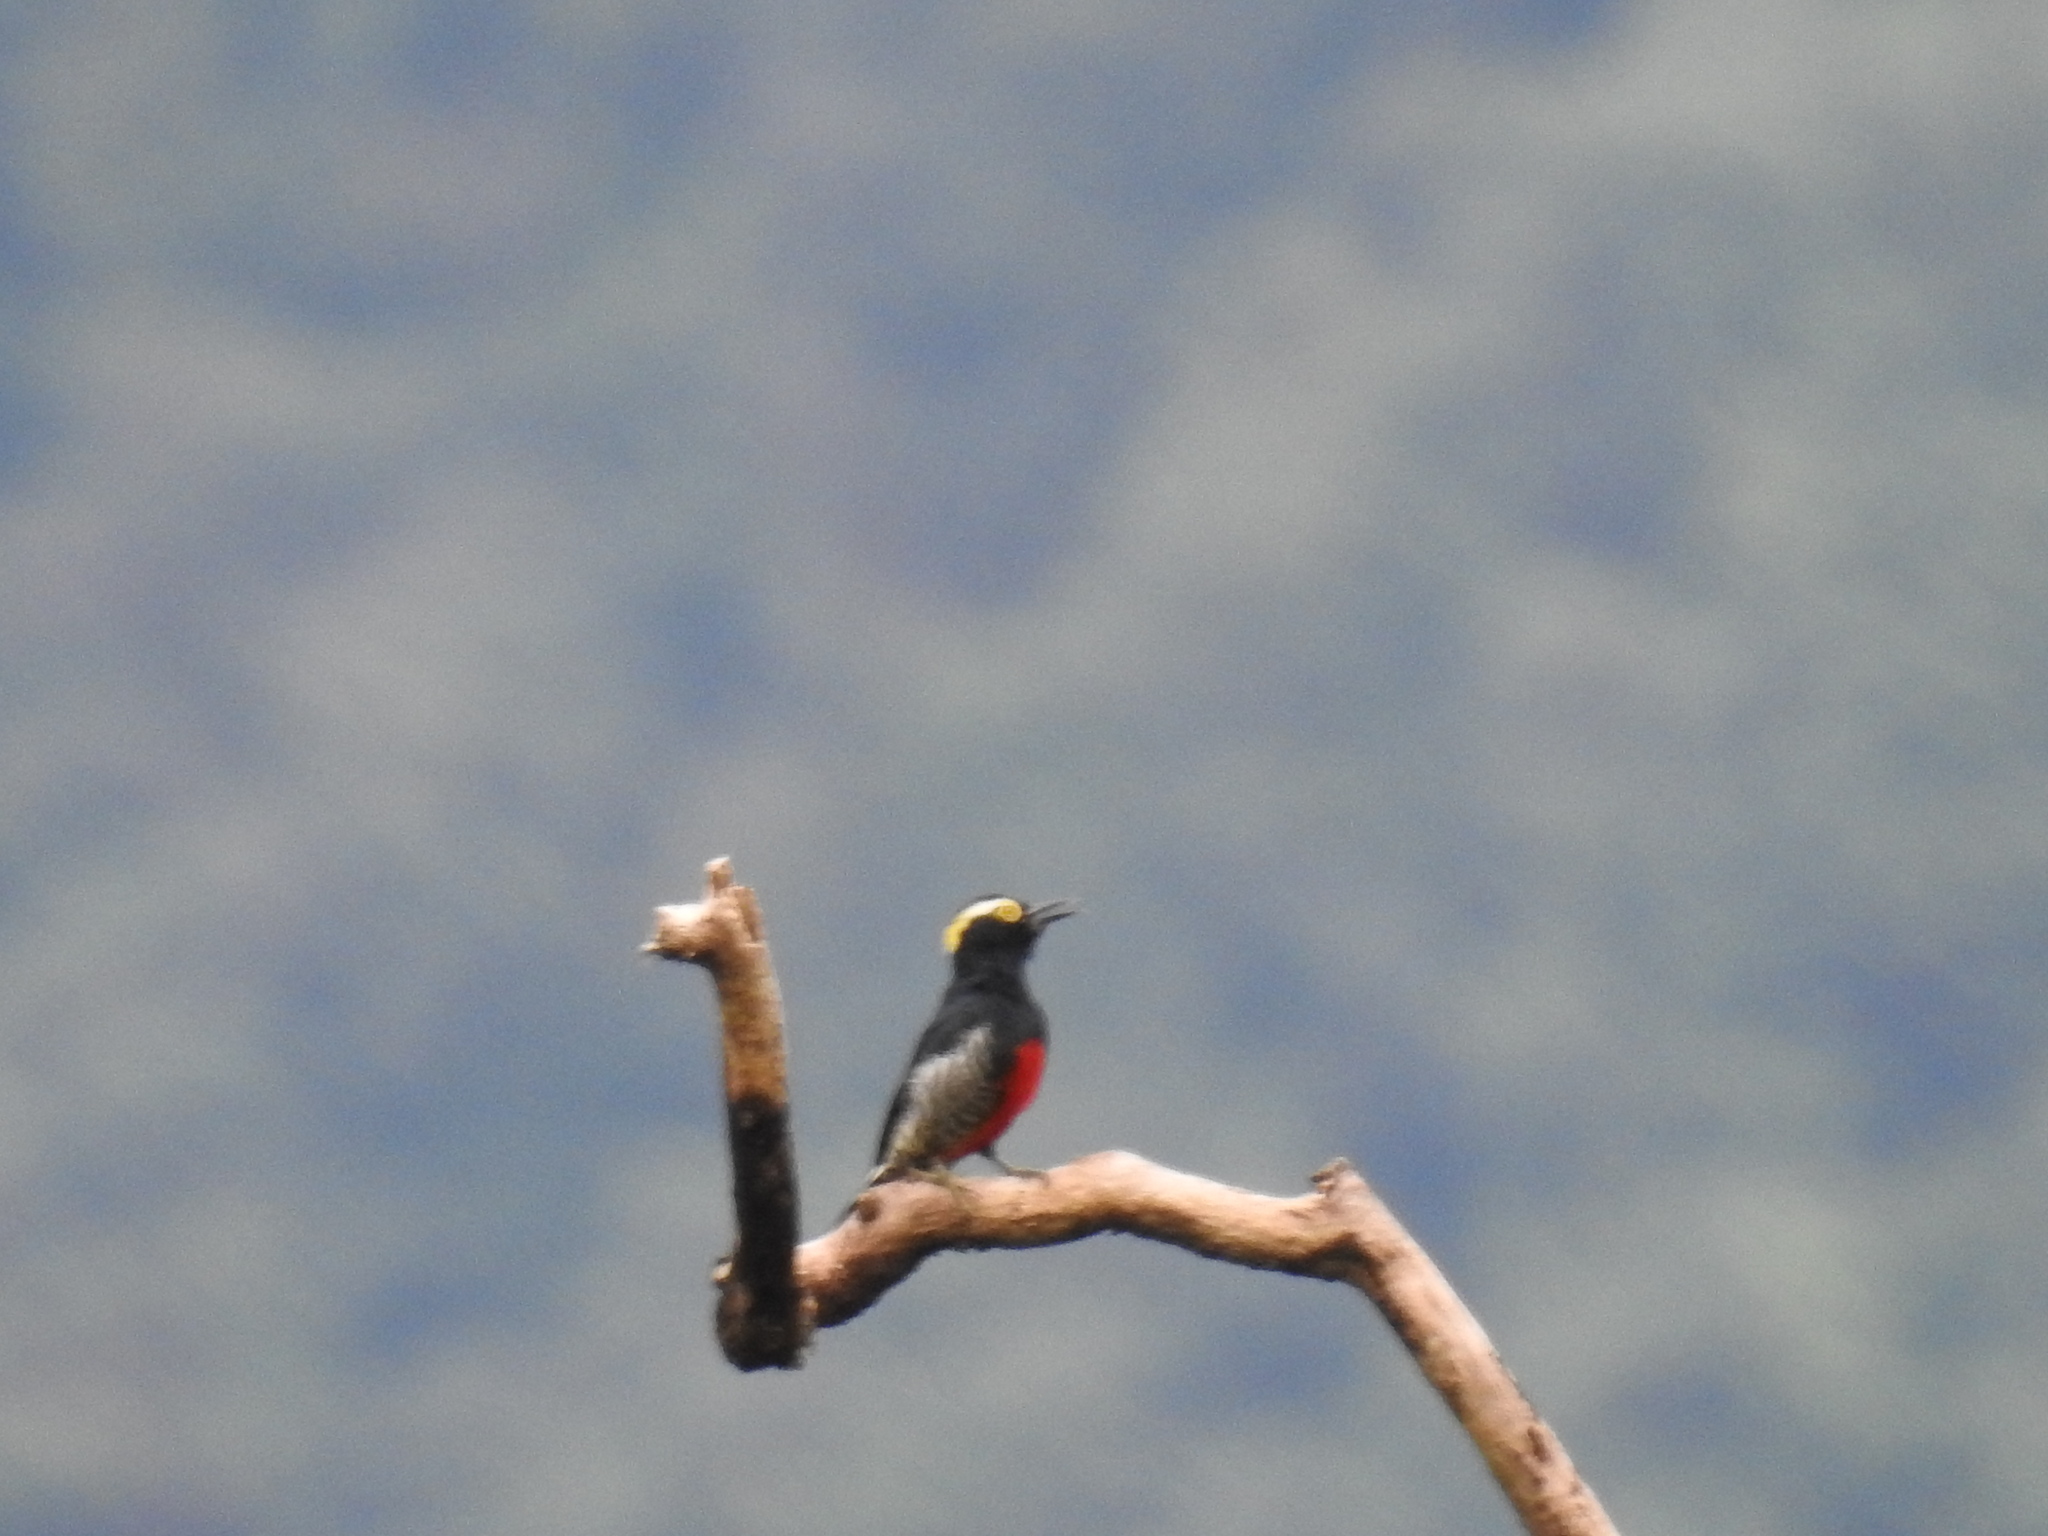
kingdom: Animalia
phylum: Chordata
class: Aves
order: Piciformes
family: Picidae
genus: Melanerpes
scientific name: Melanerpes cruentatus
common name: Yellow-tufted woodpecker
